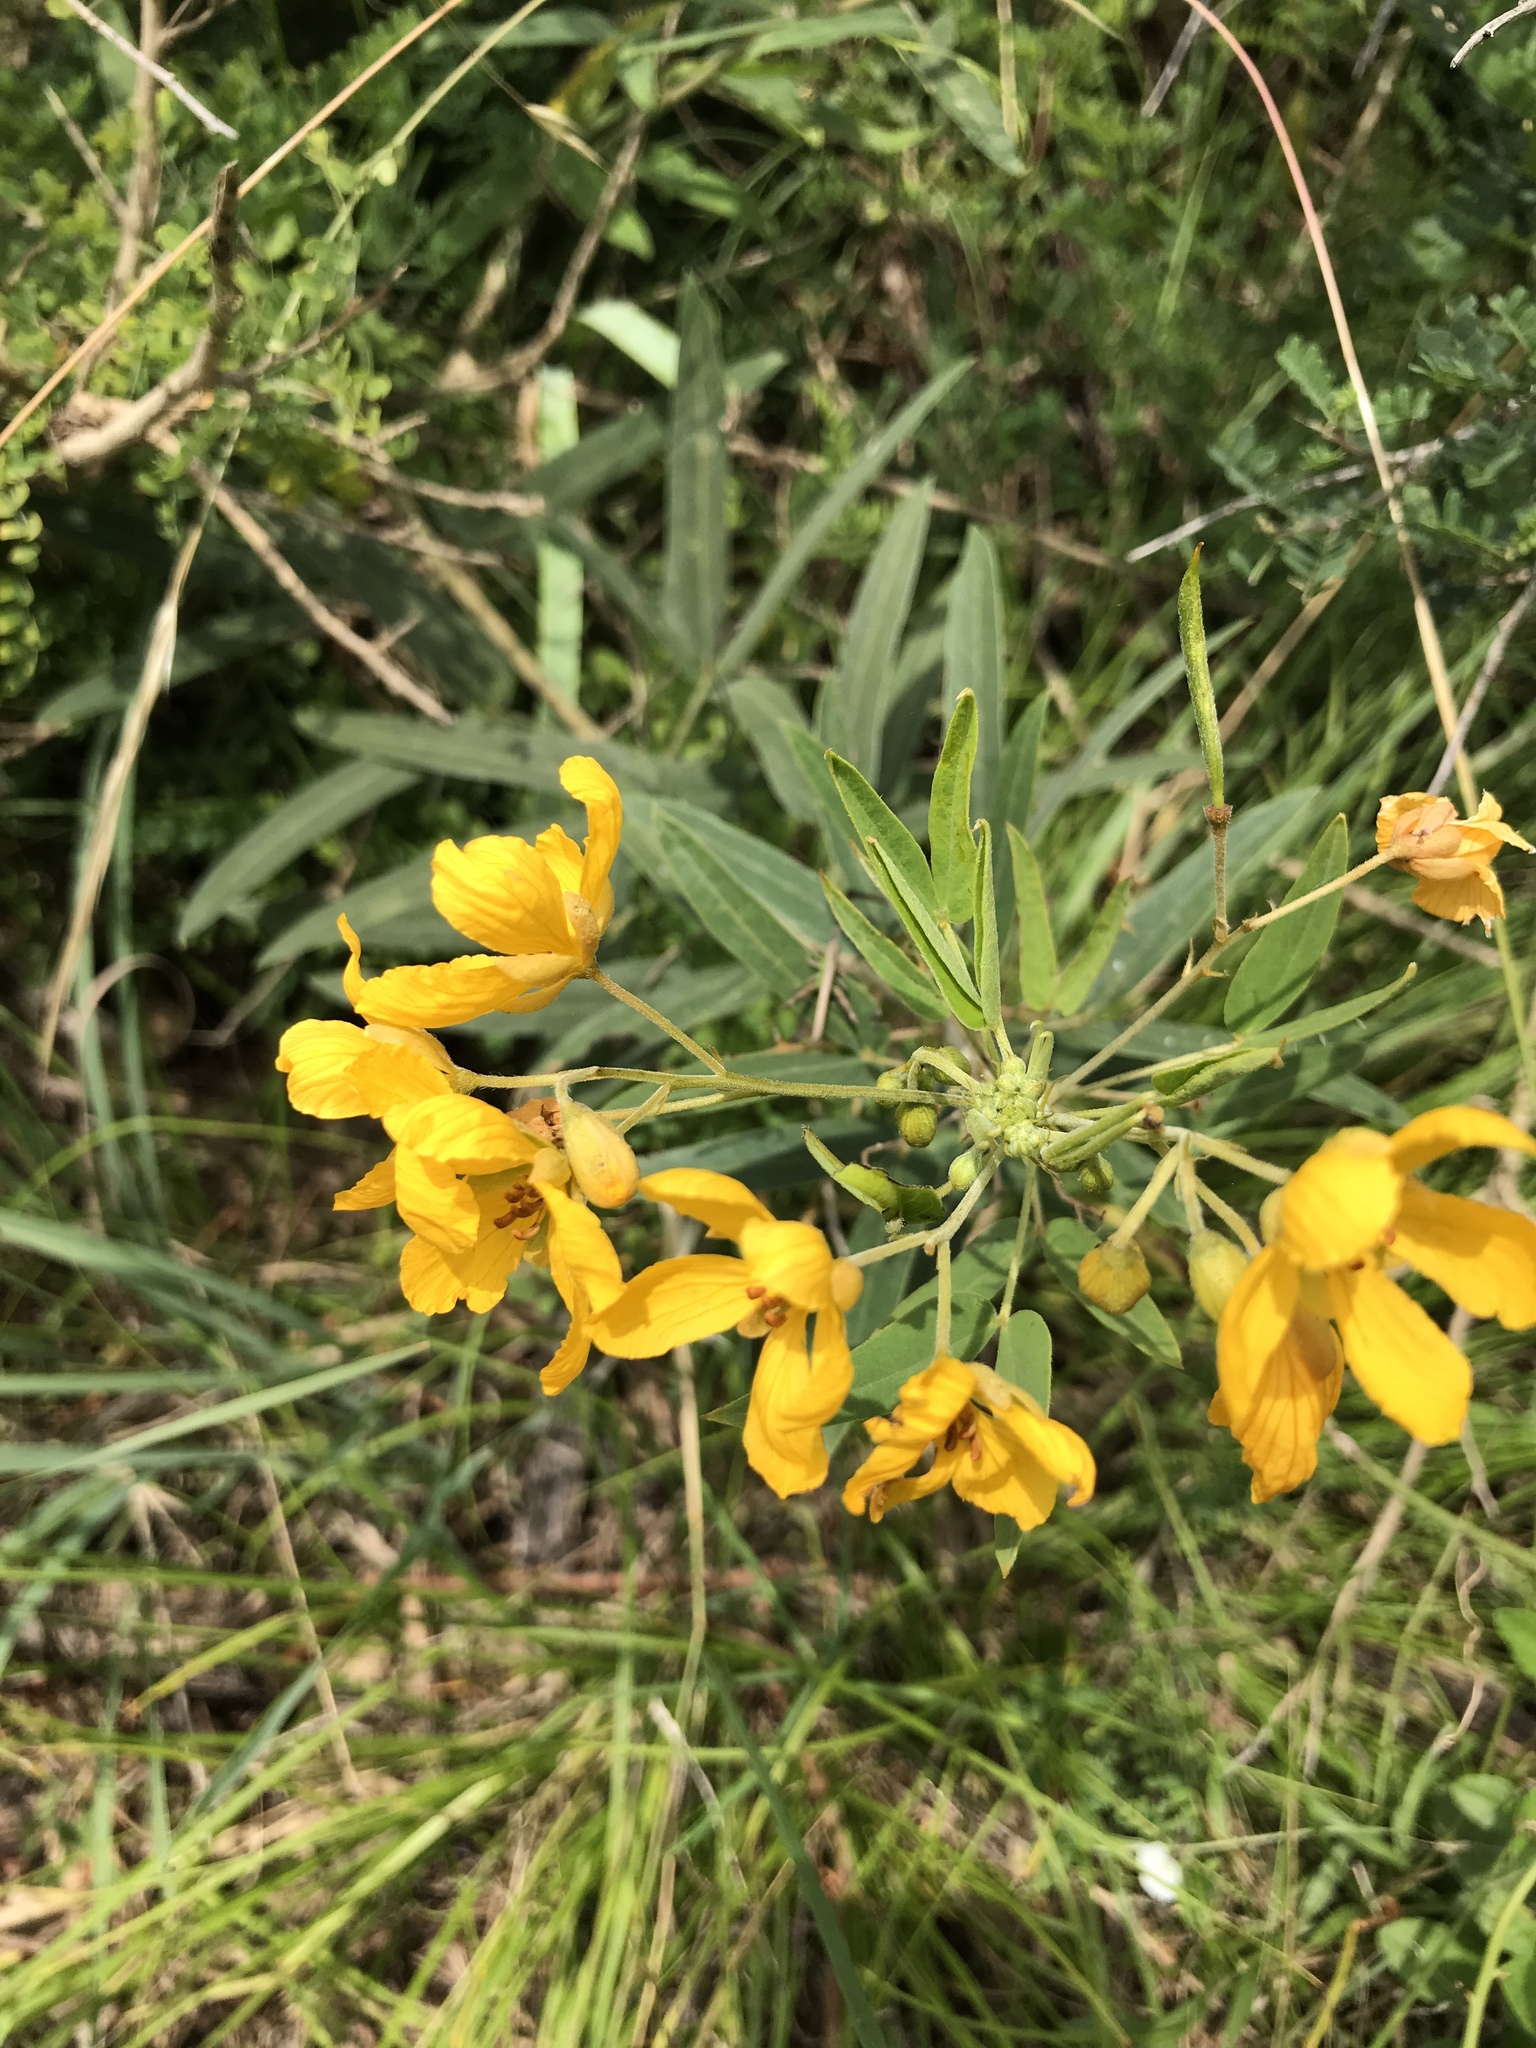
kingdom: Plantae
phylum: Tracheophyta
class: Magnoliopsida
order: Fabales
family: Fabaceae
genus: Senna
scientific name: Senna roemeriana
